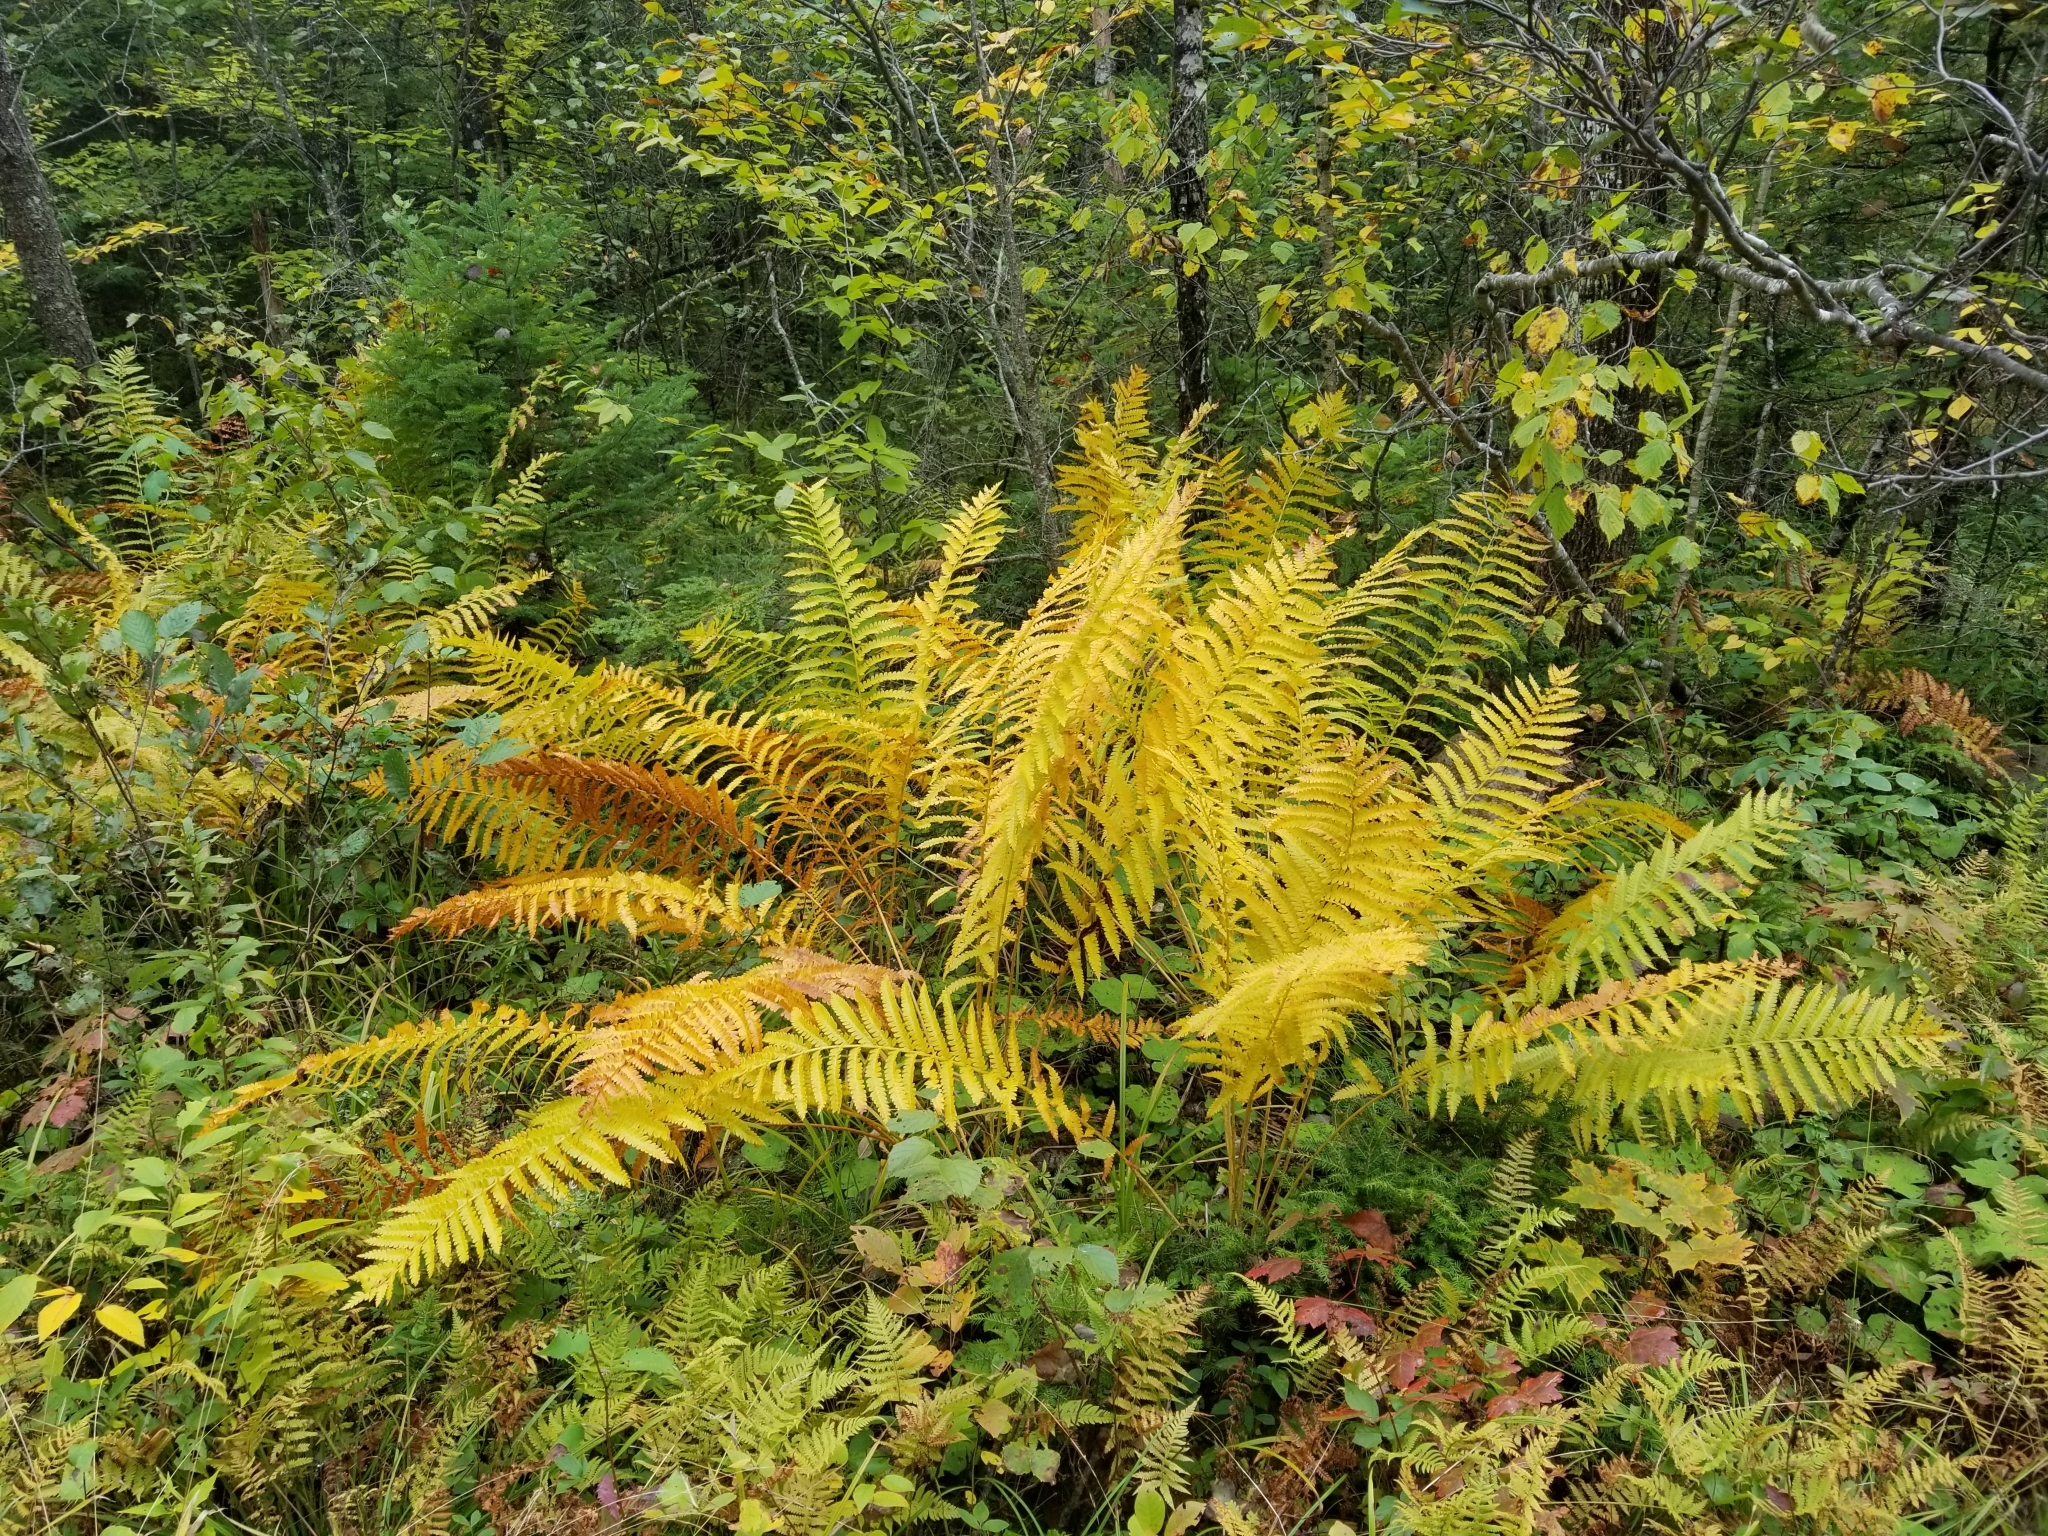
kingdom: Plantae
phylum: Tracheophyta
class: Polypodiopsida
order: Osmundales
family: Osmundaceae
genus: Osmundastrum
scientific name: Osmundastrum cinnamomeum
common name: Cinnamon fern
